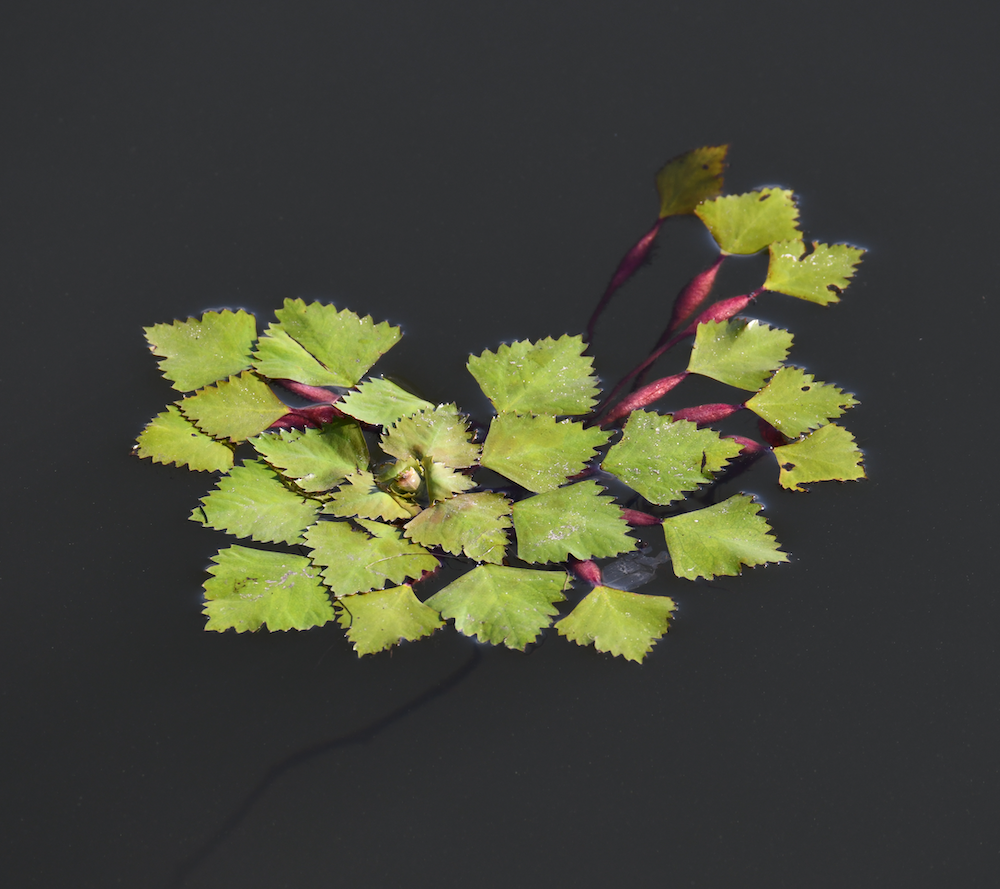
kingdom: Plantae
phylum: Tracheophyta
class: Magnoliopsida
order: Myrtales
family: Lythraceae
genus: Trapa
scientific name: Trapa natans
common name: Water chestnut
